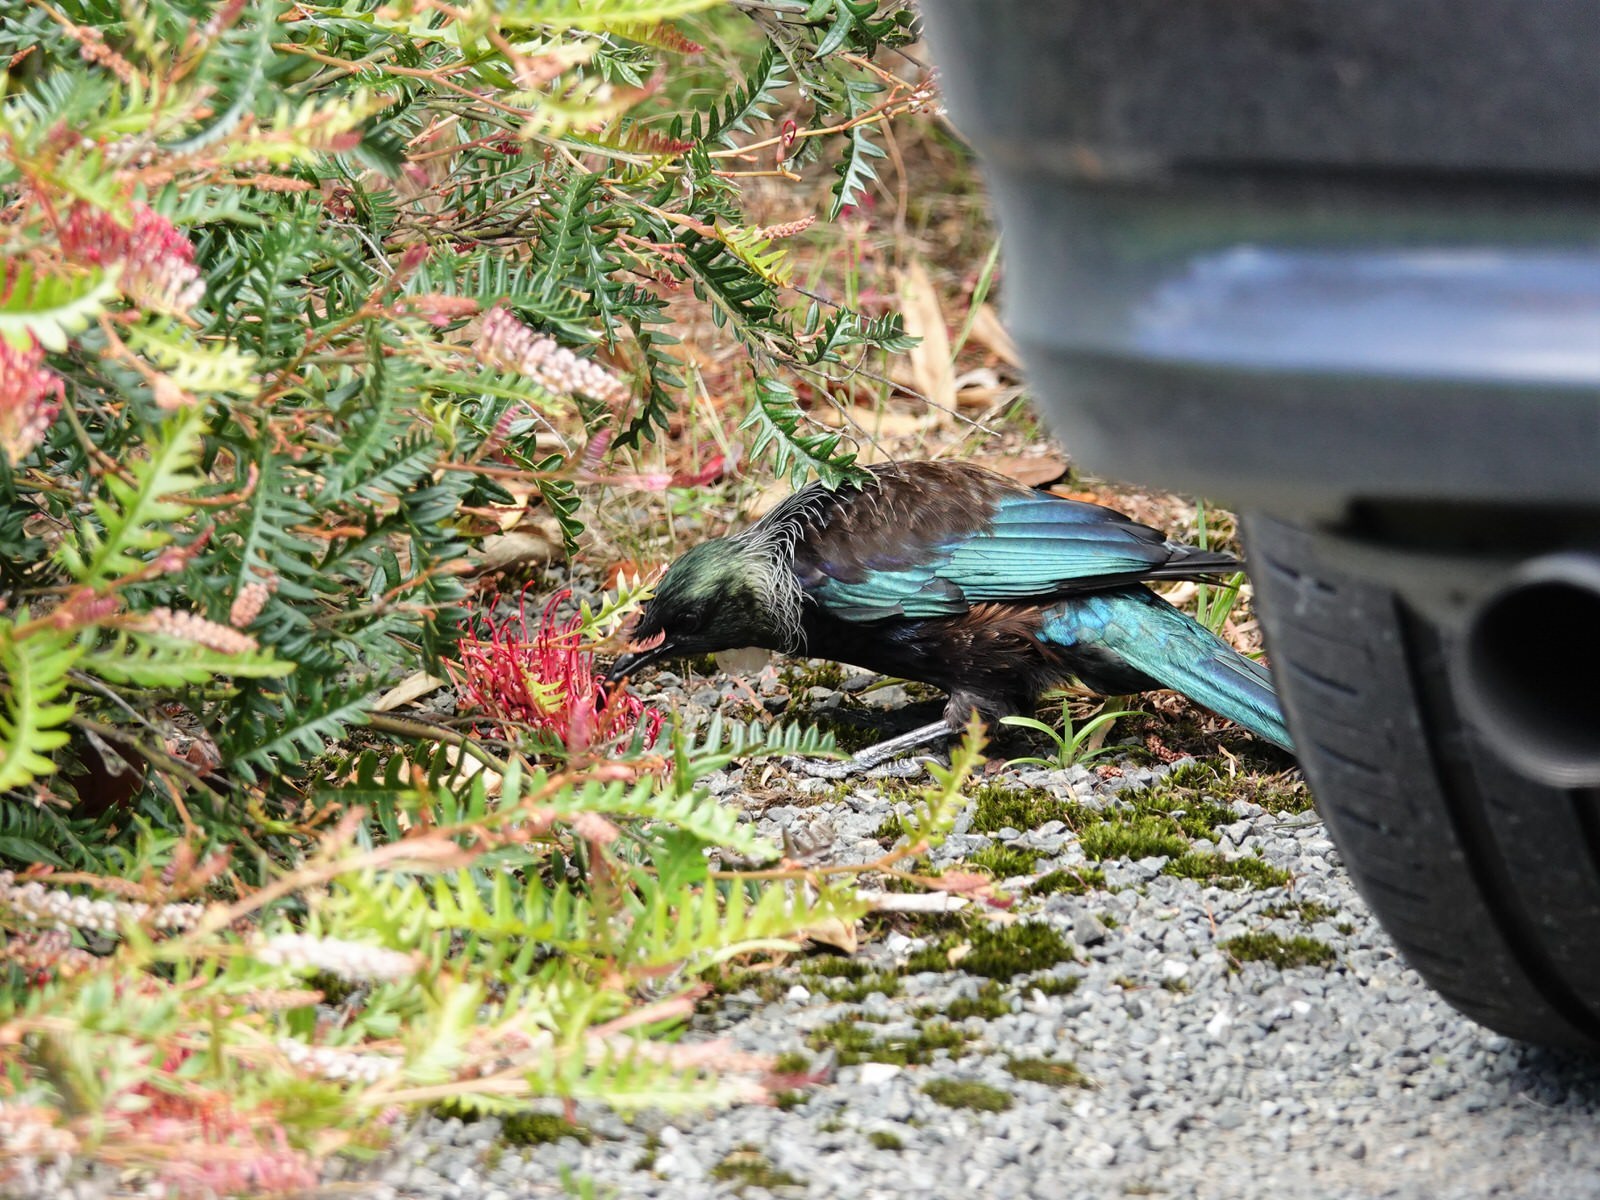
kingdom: Animalia
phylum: Chordata
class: Aves
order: Passeriformes
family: Meliphagidae
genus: Prosthemadera
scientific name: Prosthemadera novaeseelandiae
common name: Tui
